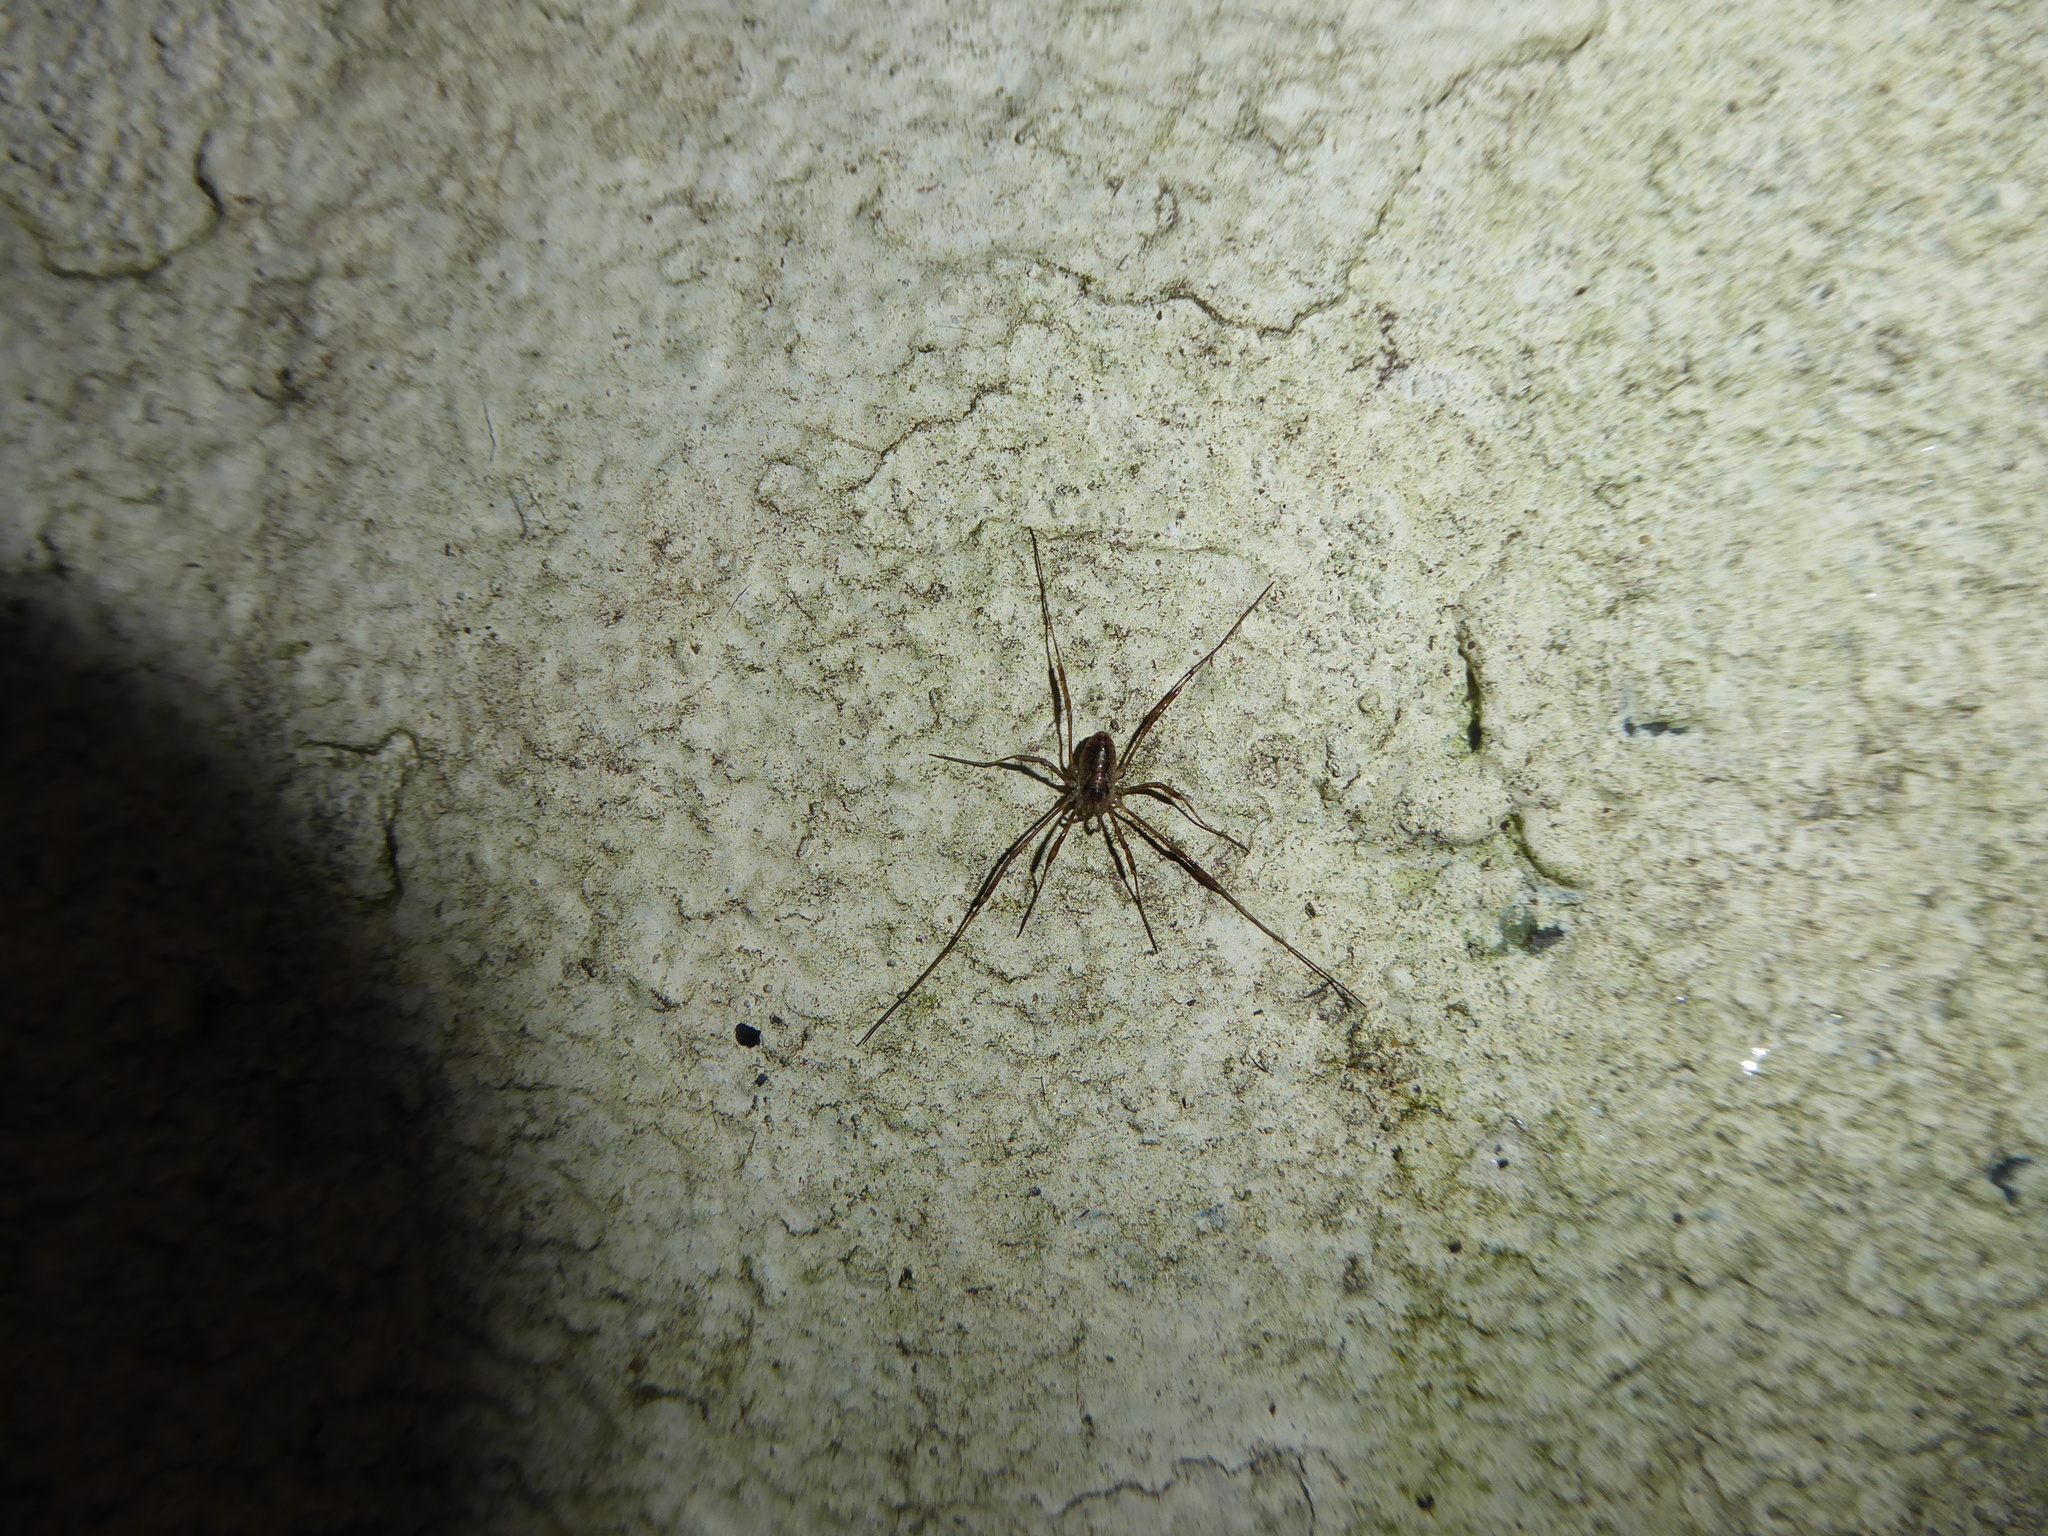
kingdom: Animalia
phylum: Arthropoda
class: Arachnida
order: Opiliones
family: Phalangiidae
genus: Paroligolophus
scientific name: Paroligolophus agrestis
